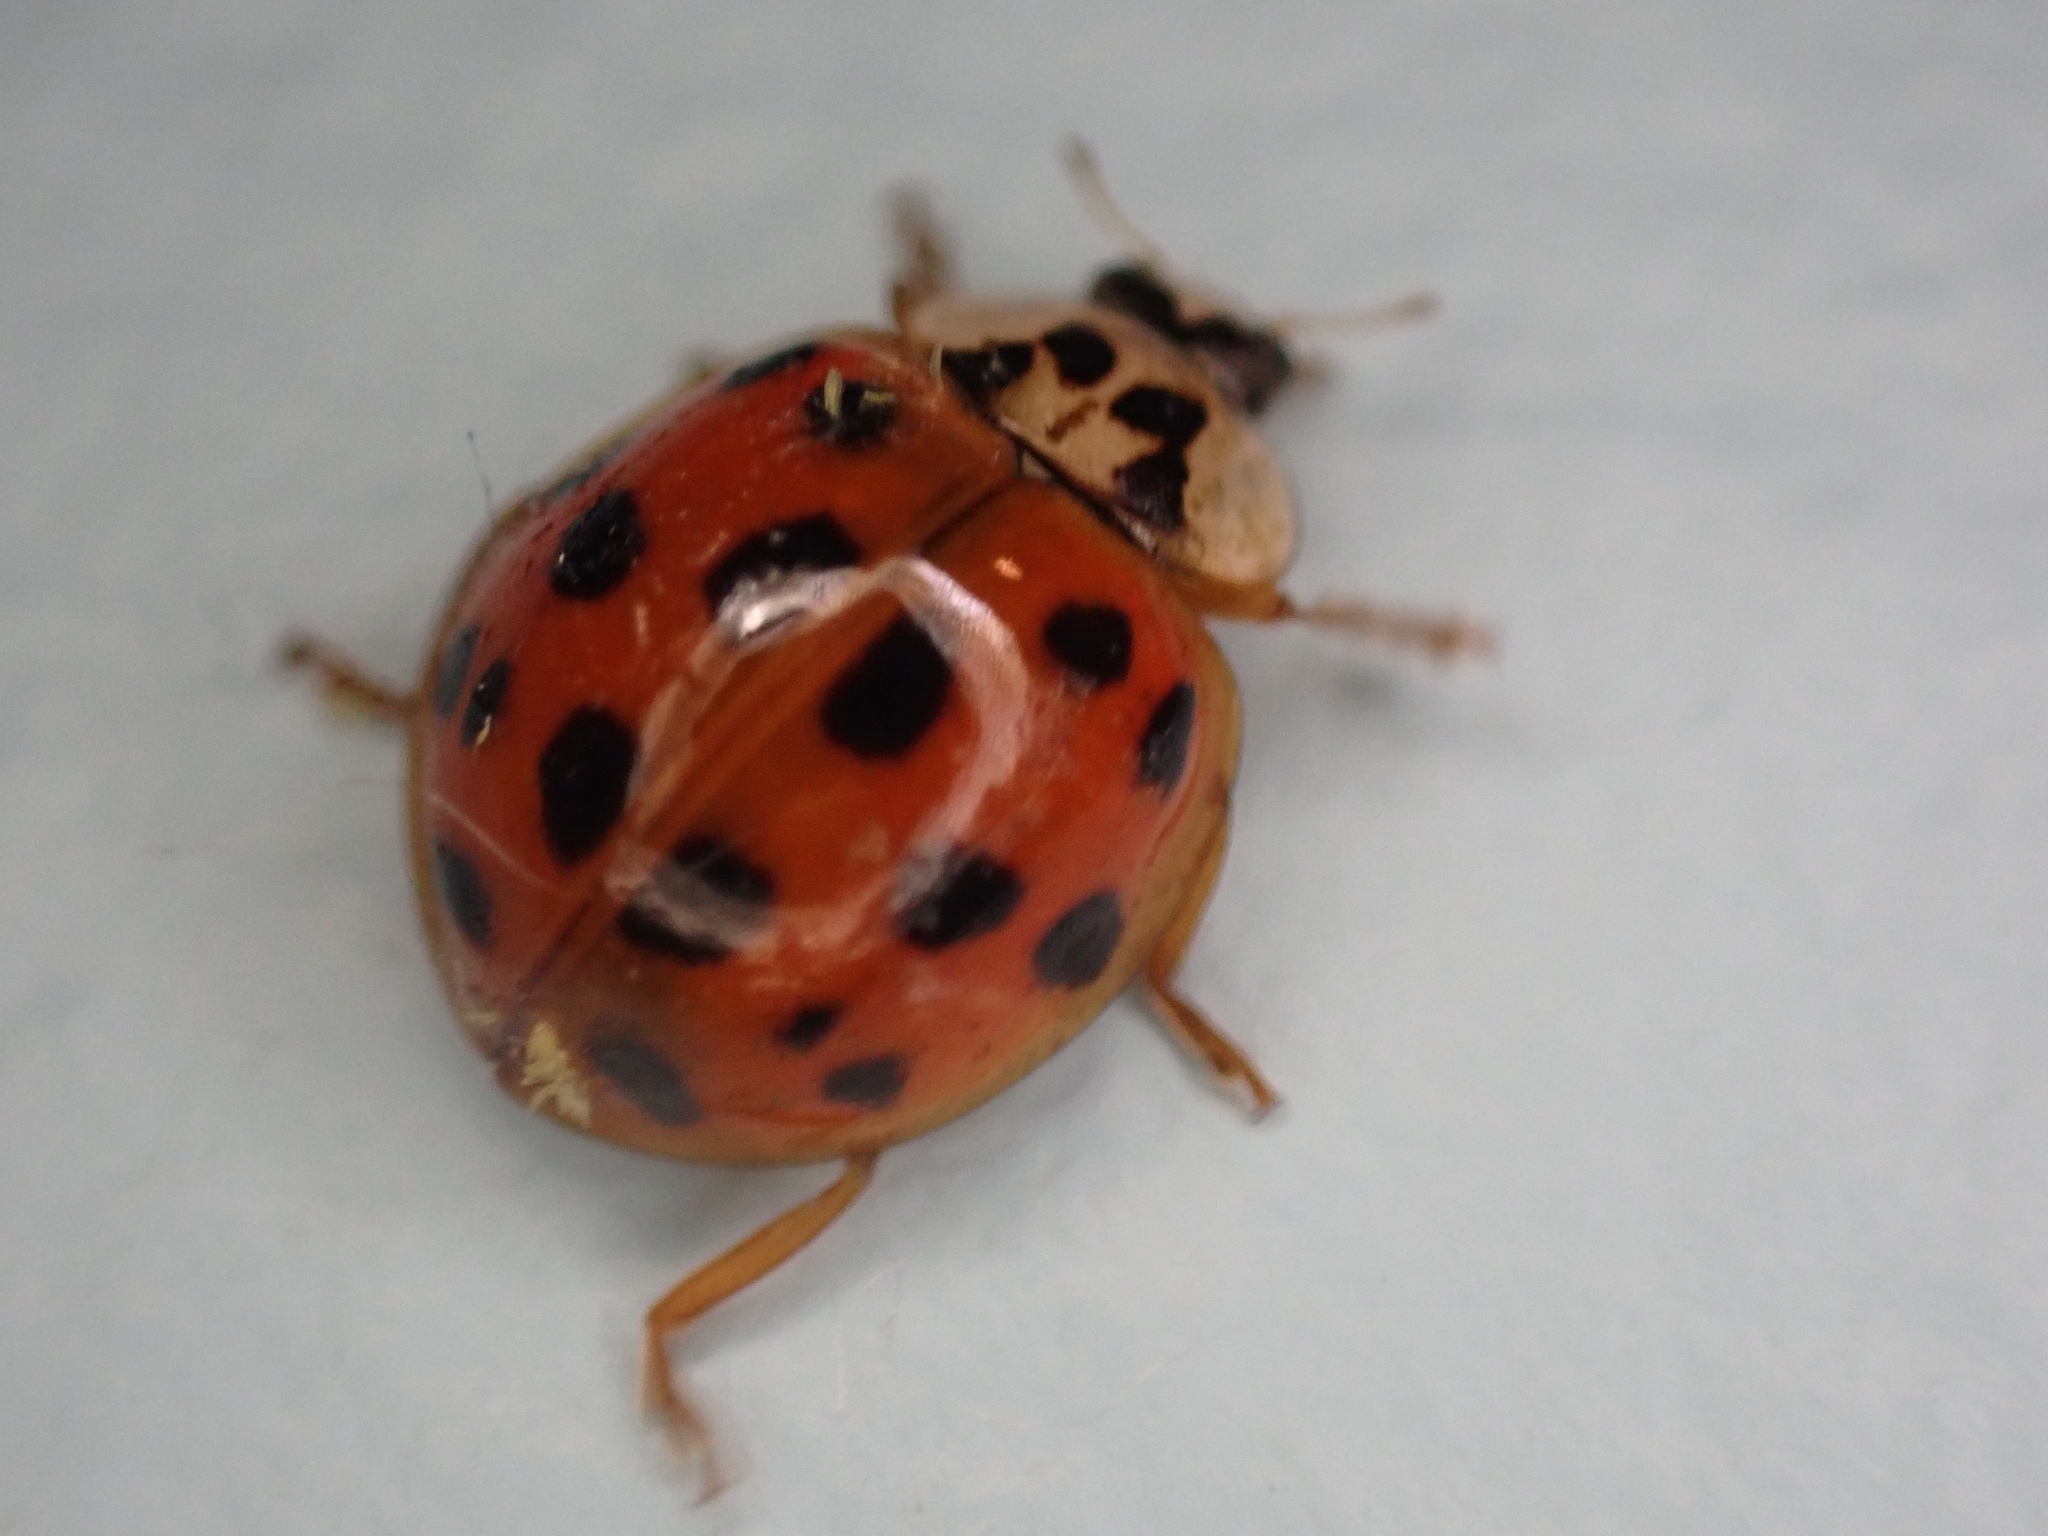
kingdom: Animalia
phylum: Arthropoda
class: Insecta
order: Coleoptera
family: Coccinellidae
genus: Harmonia
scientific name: Harmonia axyridis
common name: Harlequin ladybird
